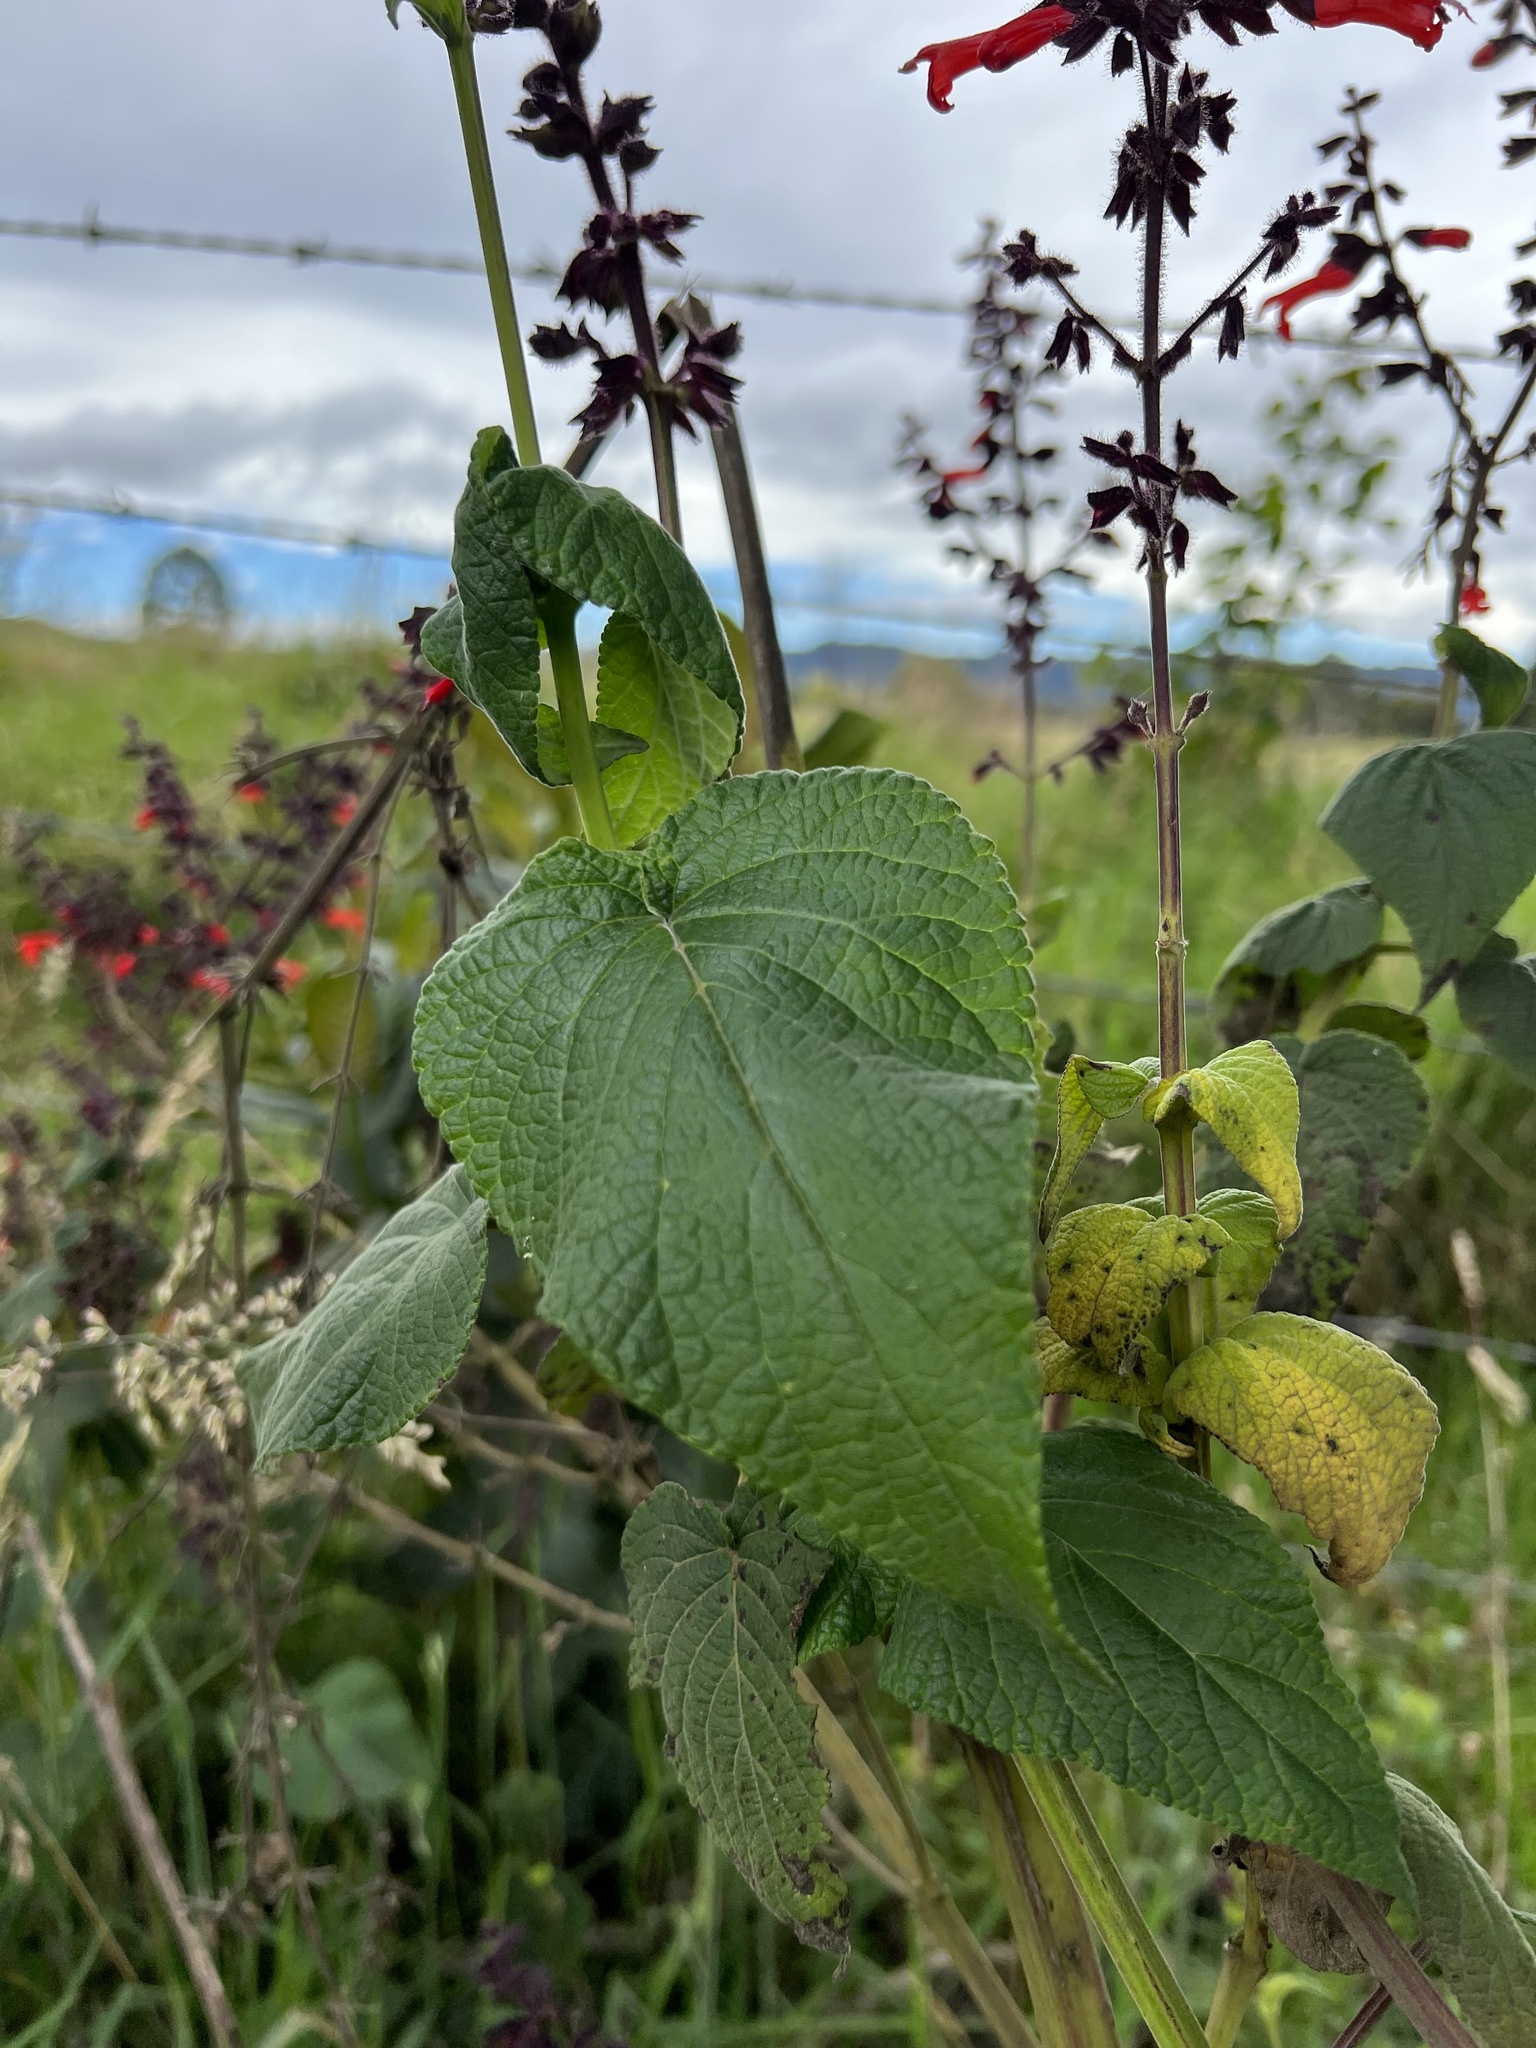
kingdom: Plantae
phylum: Tracheophyta
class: Magnoliopsida
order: Lamiales
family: Lamiaceae
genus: Salvia
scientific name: Salvia rubescens
